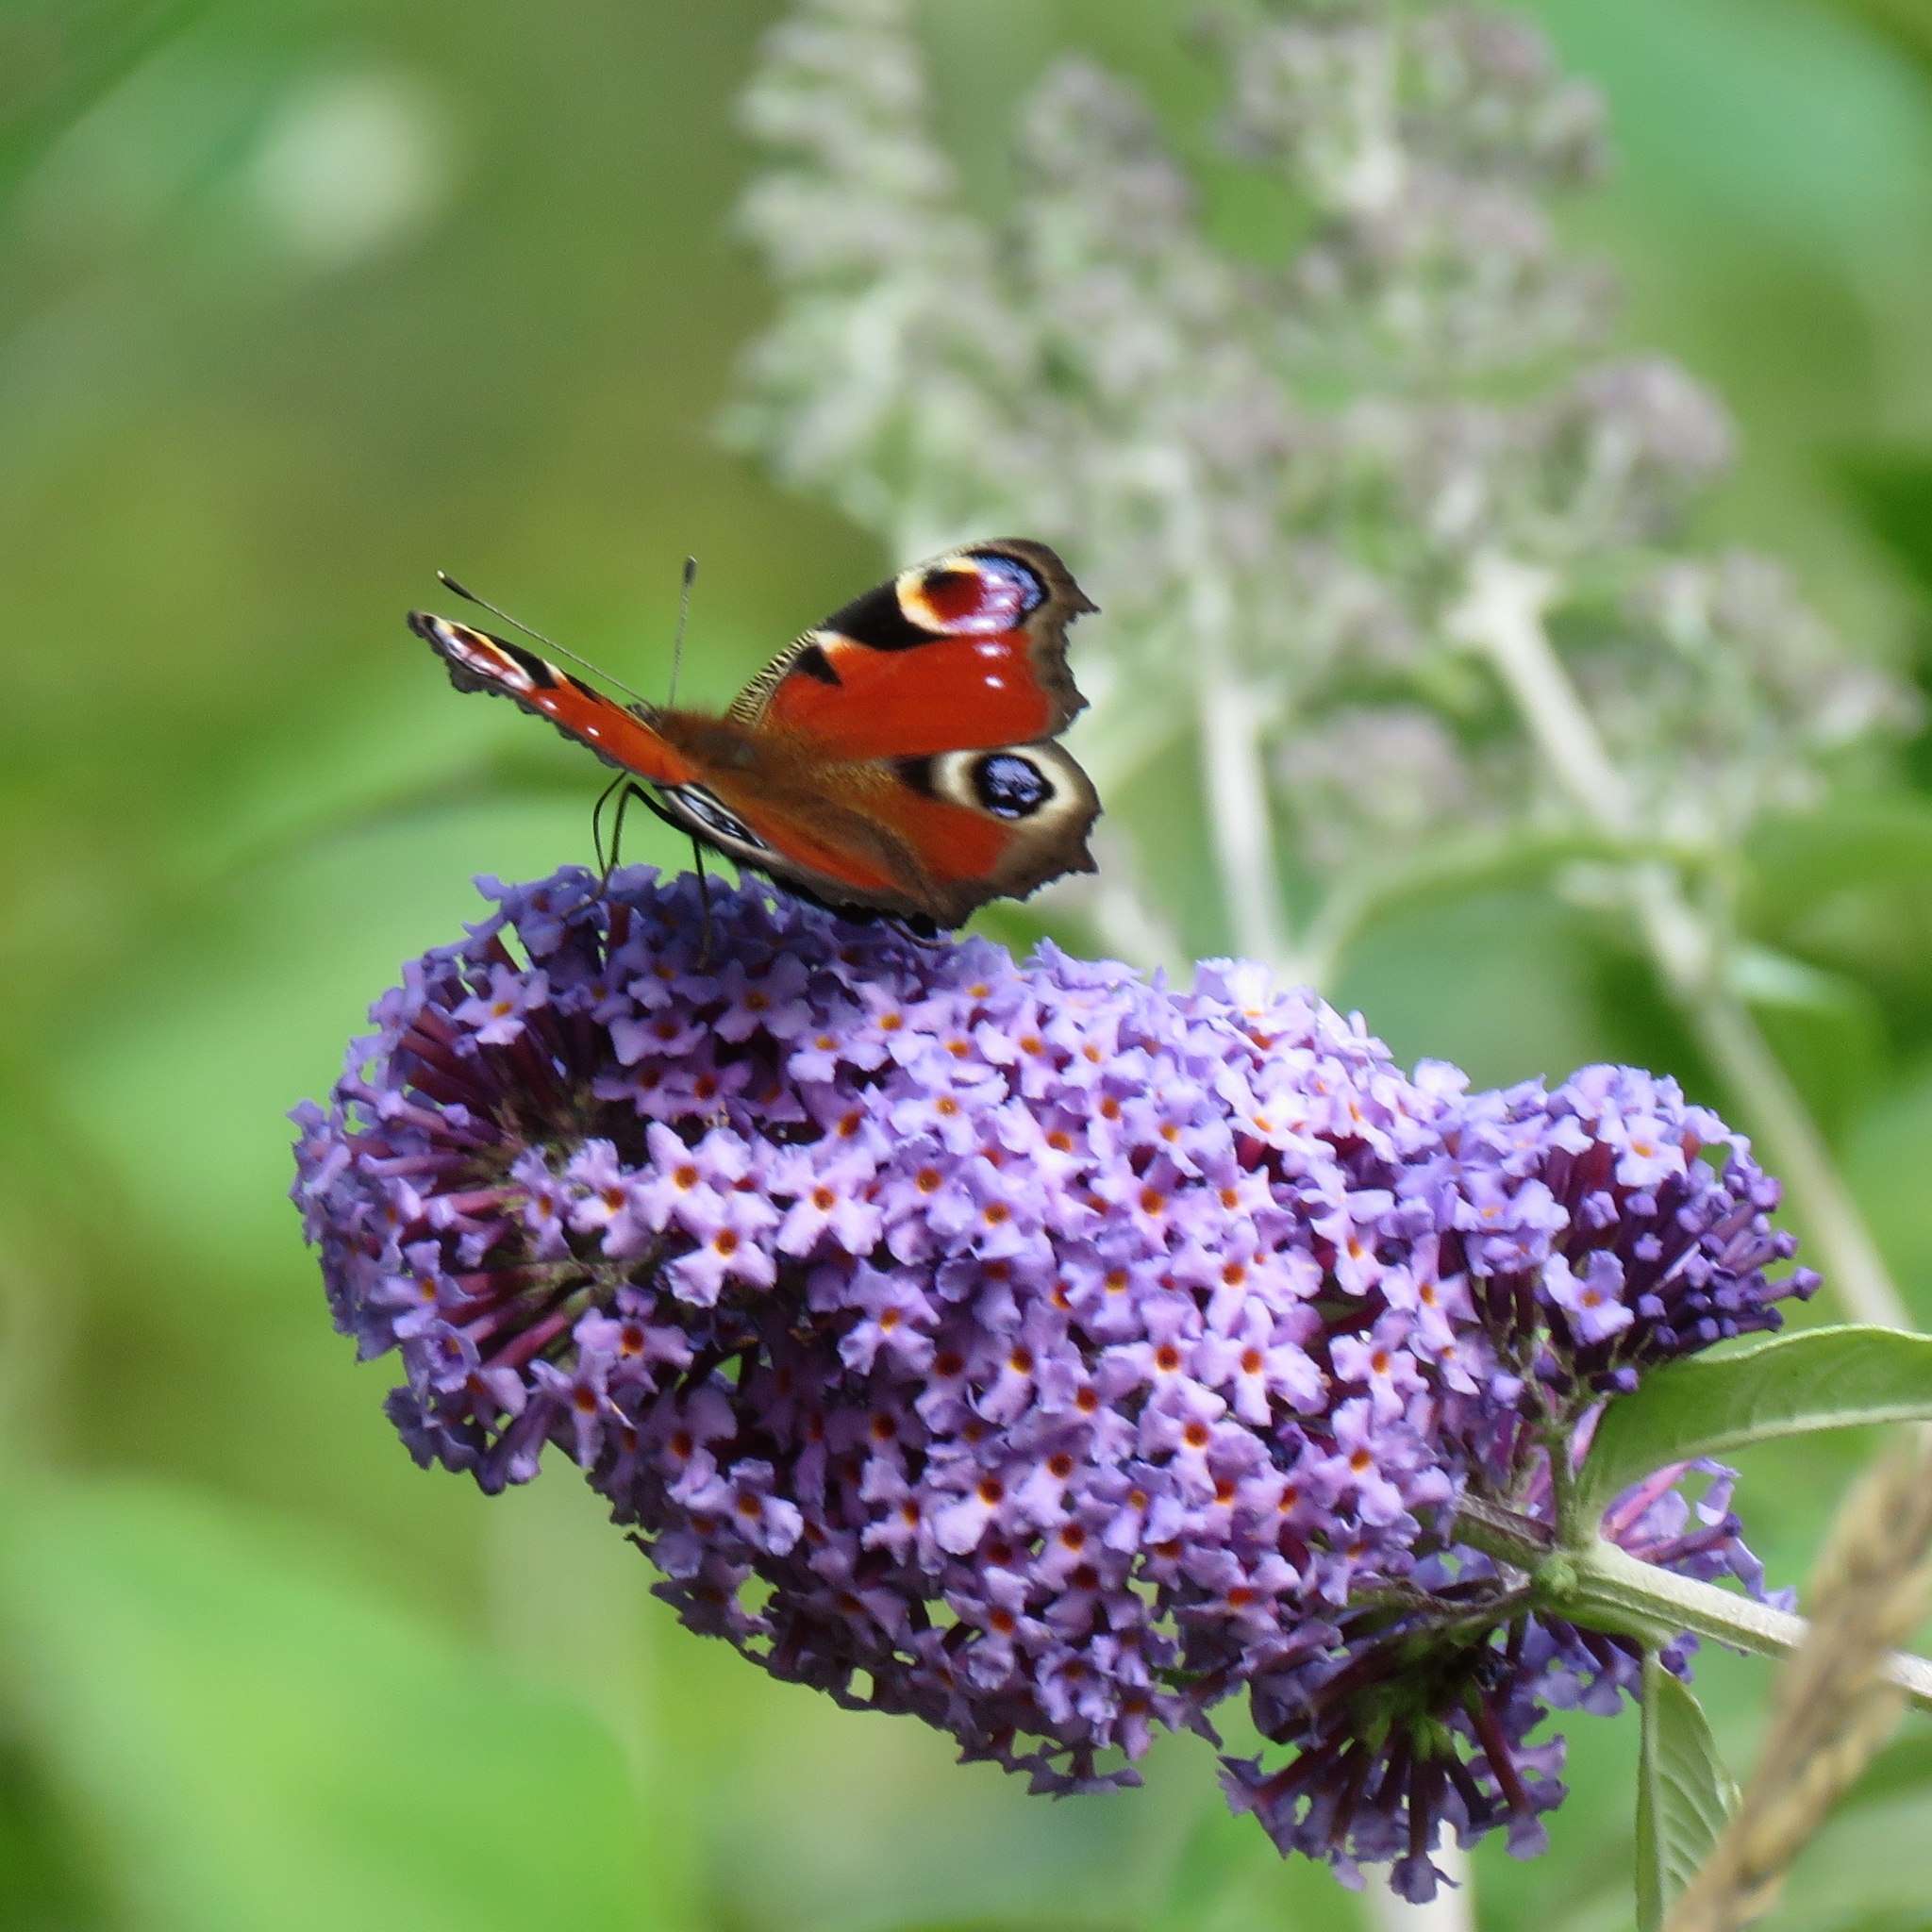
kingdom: Animalia
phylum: Arthropoda
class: Insecta
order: Lepidoptera
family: Nymphalidae
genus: Aglais
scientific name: Aglais io
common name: Peacock
